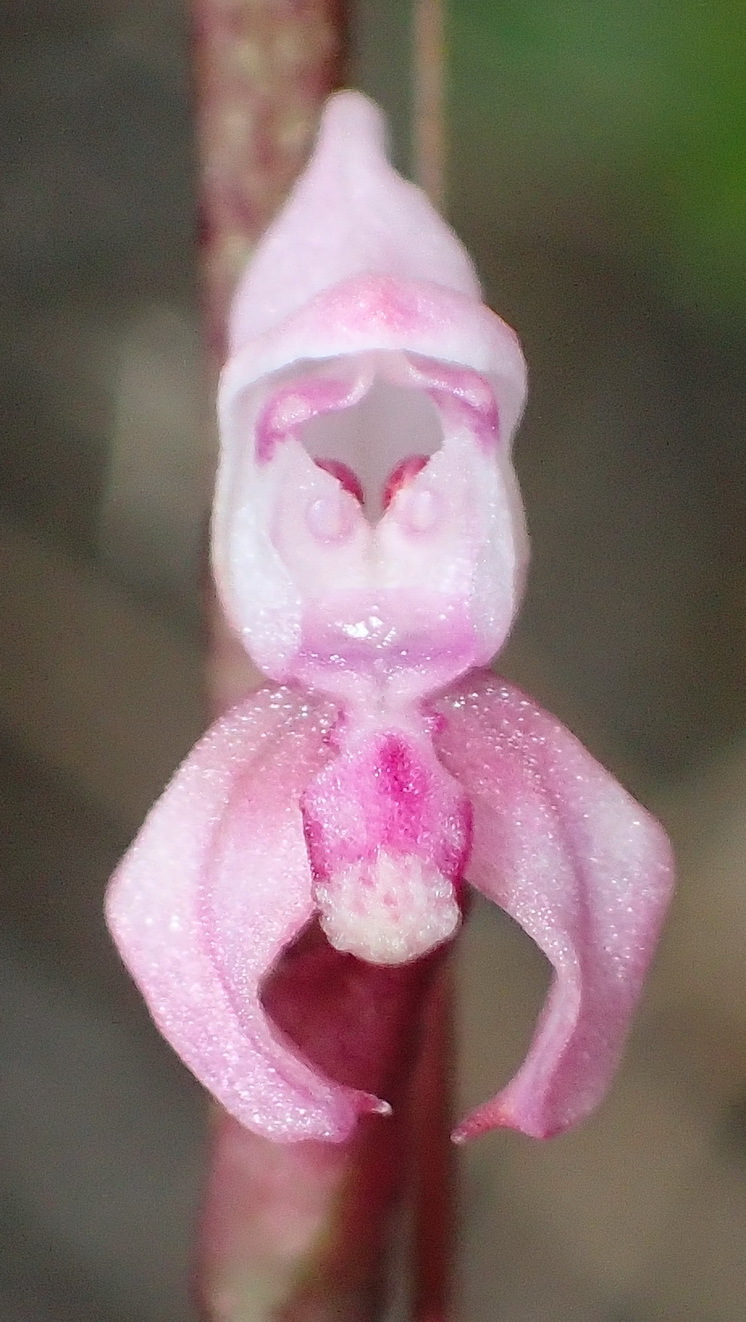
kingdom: Plantae
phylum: Tracheophyta
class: Liliopsida
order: Asparagales
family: Orchidaceae
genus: Disa
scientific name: Disa aconitoides
